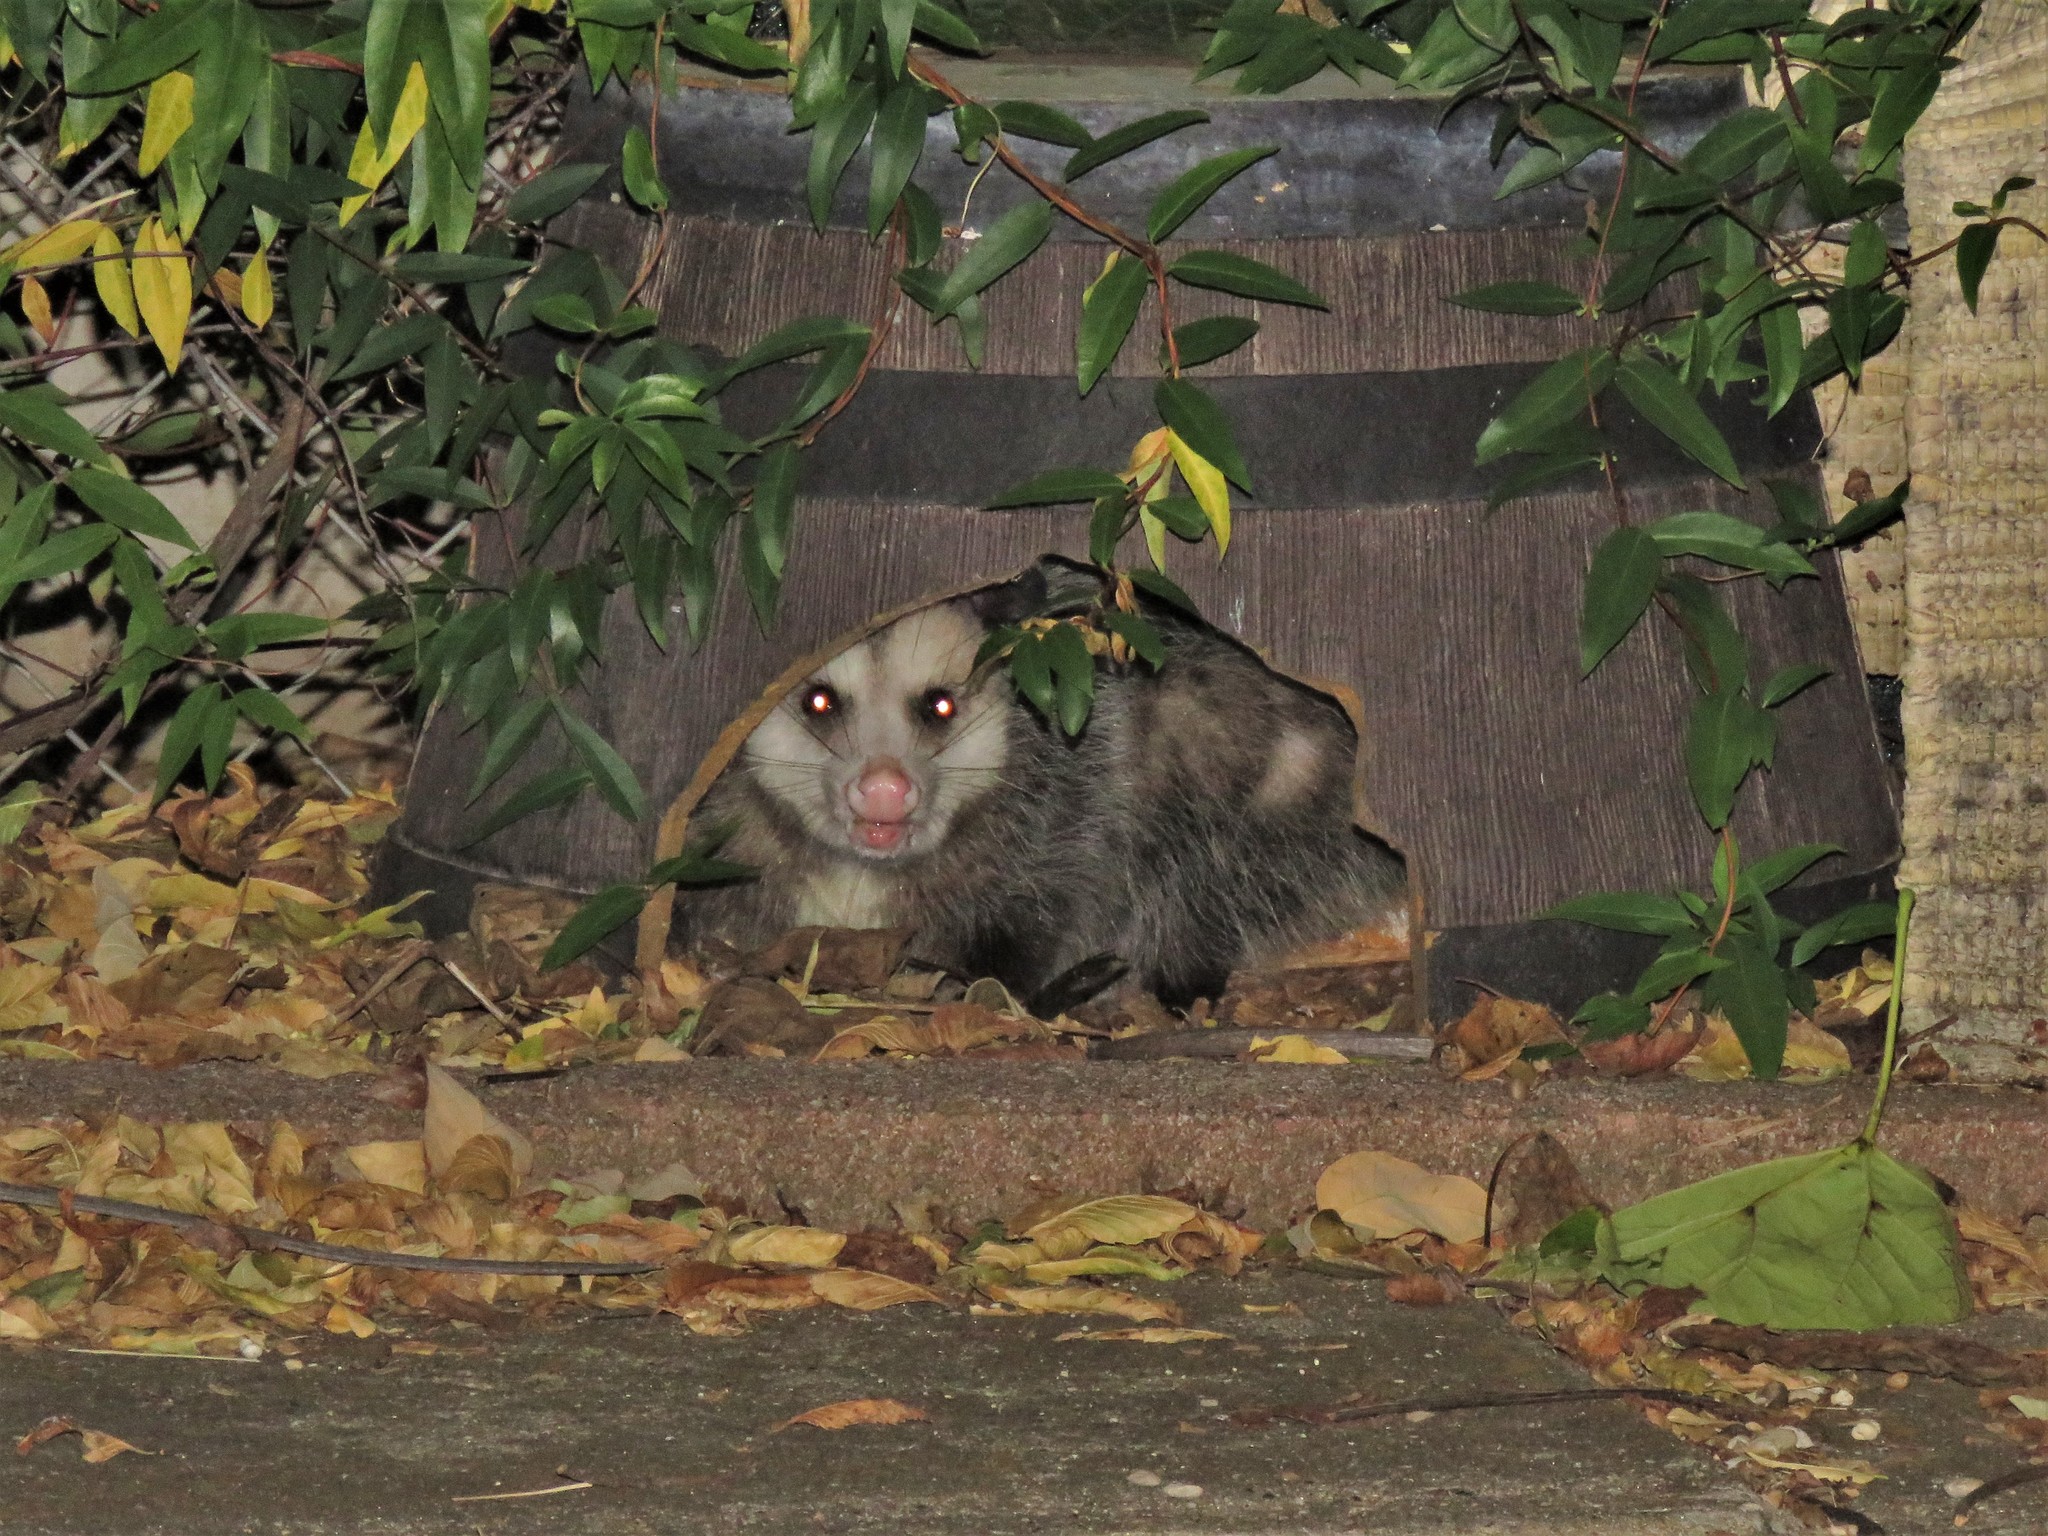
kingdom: Animalia
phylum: Chordata
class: Mammalia
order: Didelphimorphia
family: Didelphidae
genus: Didelphis
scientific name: Didelphis virginiana
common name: Virginia opossum
